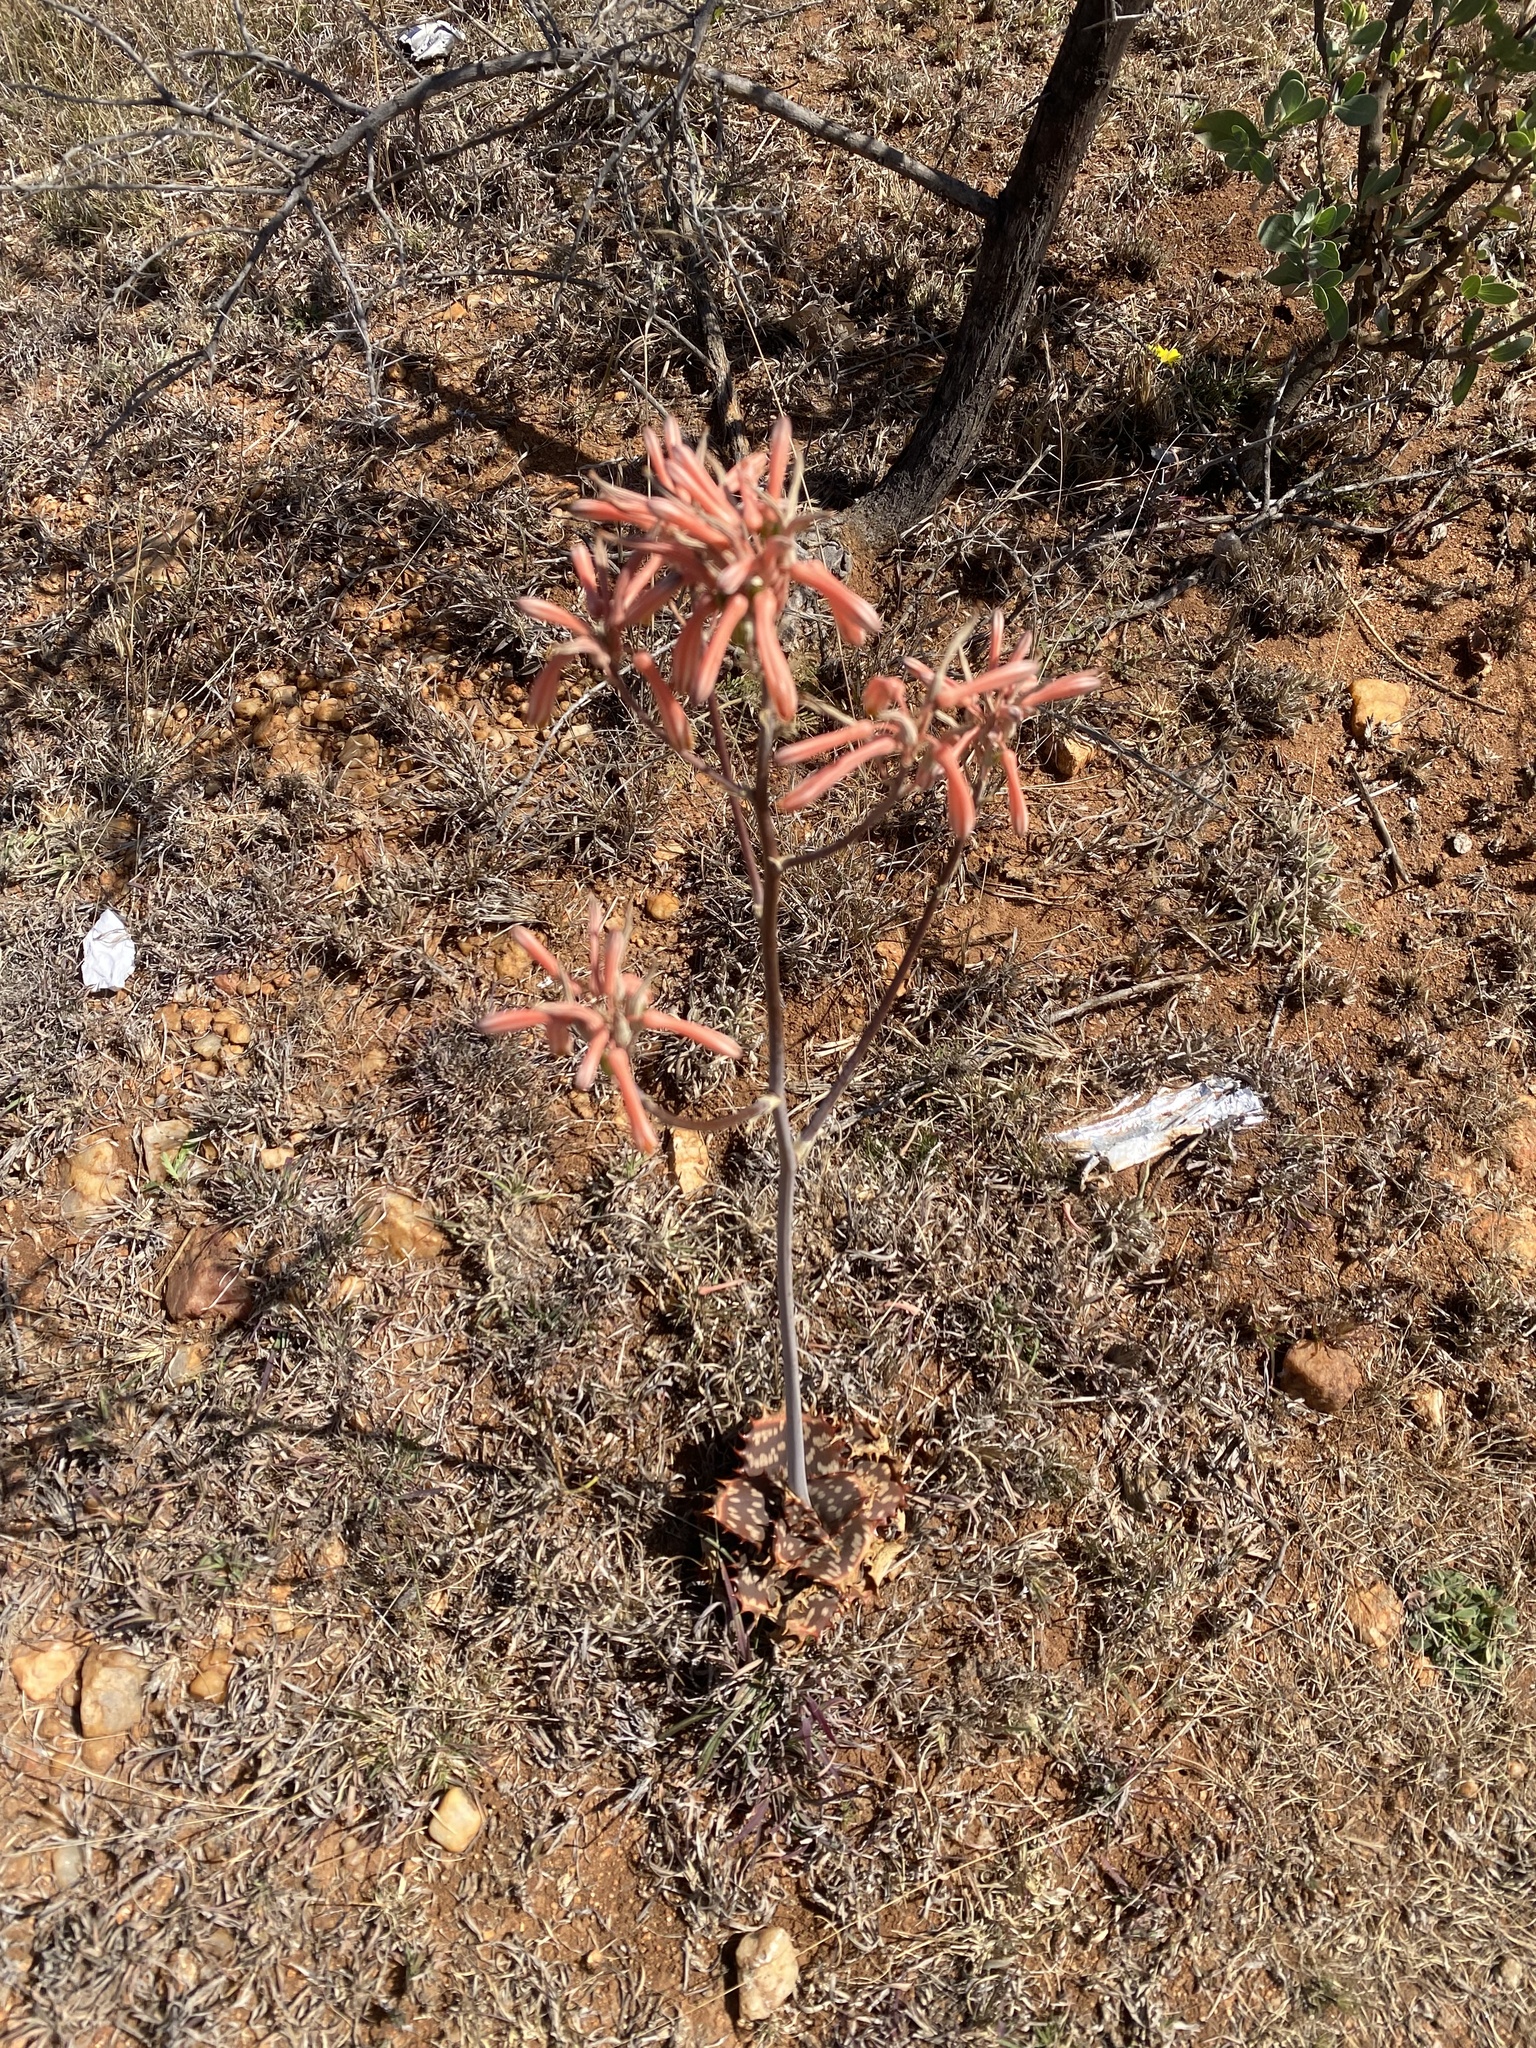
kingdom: Plantae
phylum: Tracheophyta
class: Liliopsida
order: Asparagales
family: Asphodelaceae
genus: Aloe
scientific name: Aloe greatheadii
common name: Greathead's aloe
